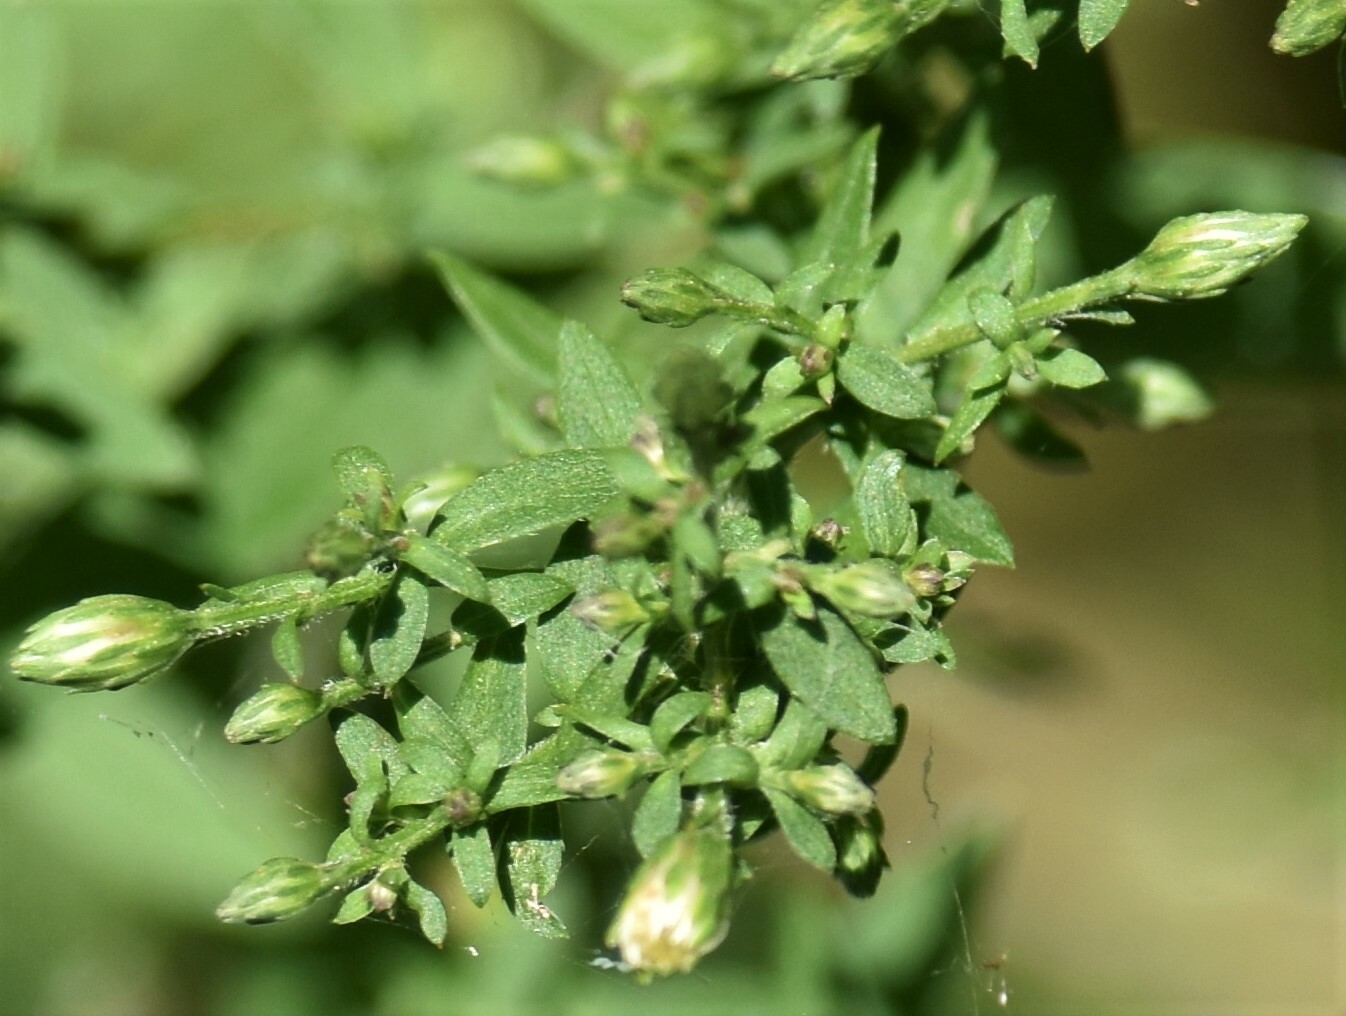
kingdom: Plantae
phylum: Tracheophyta
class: Magnoliopsida
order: Asterales
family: Asteraceae
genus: Symphyotrichum
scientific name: Symphyotrichum lateriflorum
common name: Calico aster
